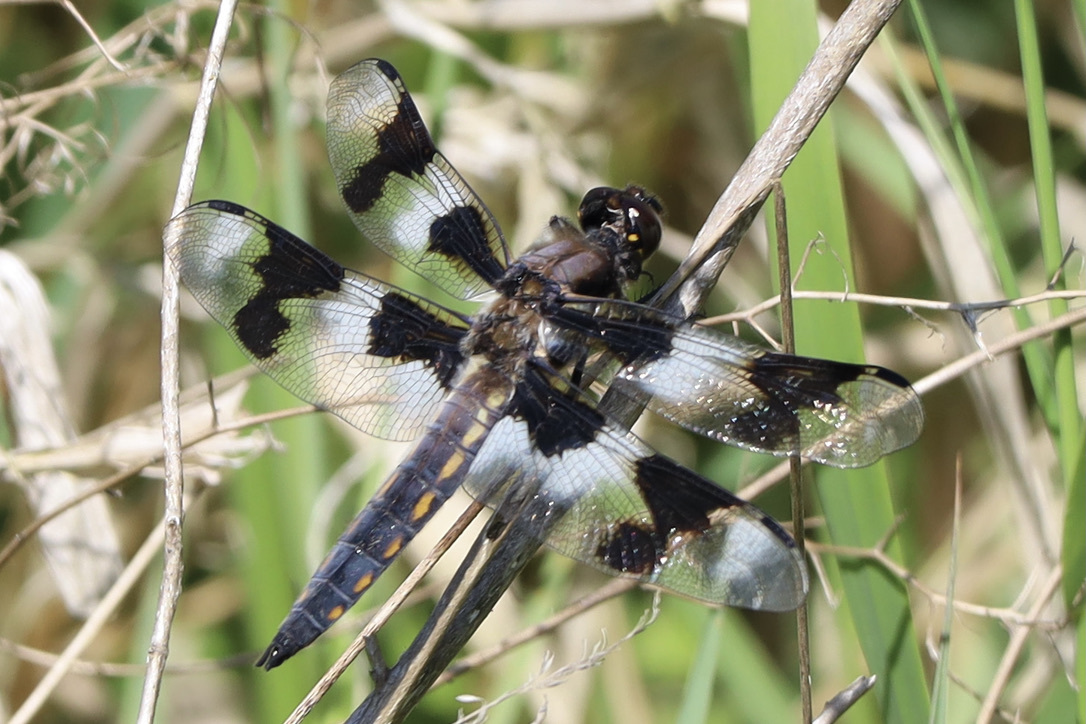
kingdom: Animalia
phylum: Arthropoda
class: Insecta
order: Odonata
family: Libellulidae
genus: Libellula
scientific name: Libellula forensis
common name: Eight-spotted skimmer
